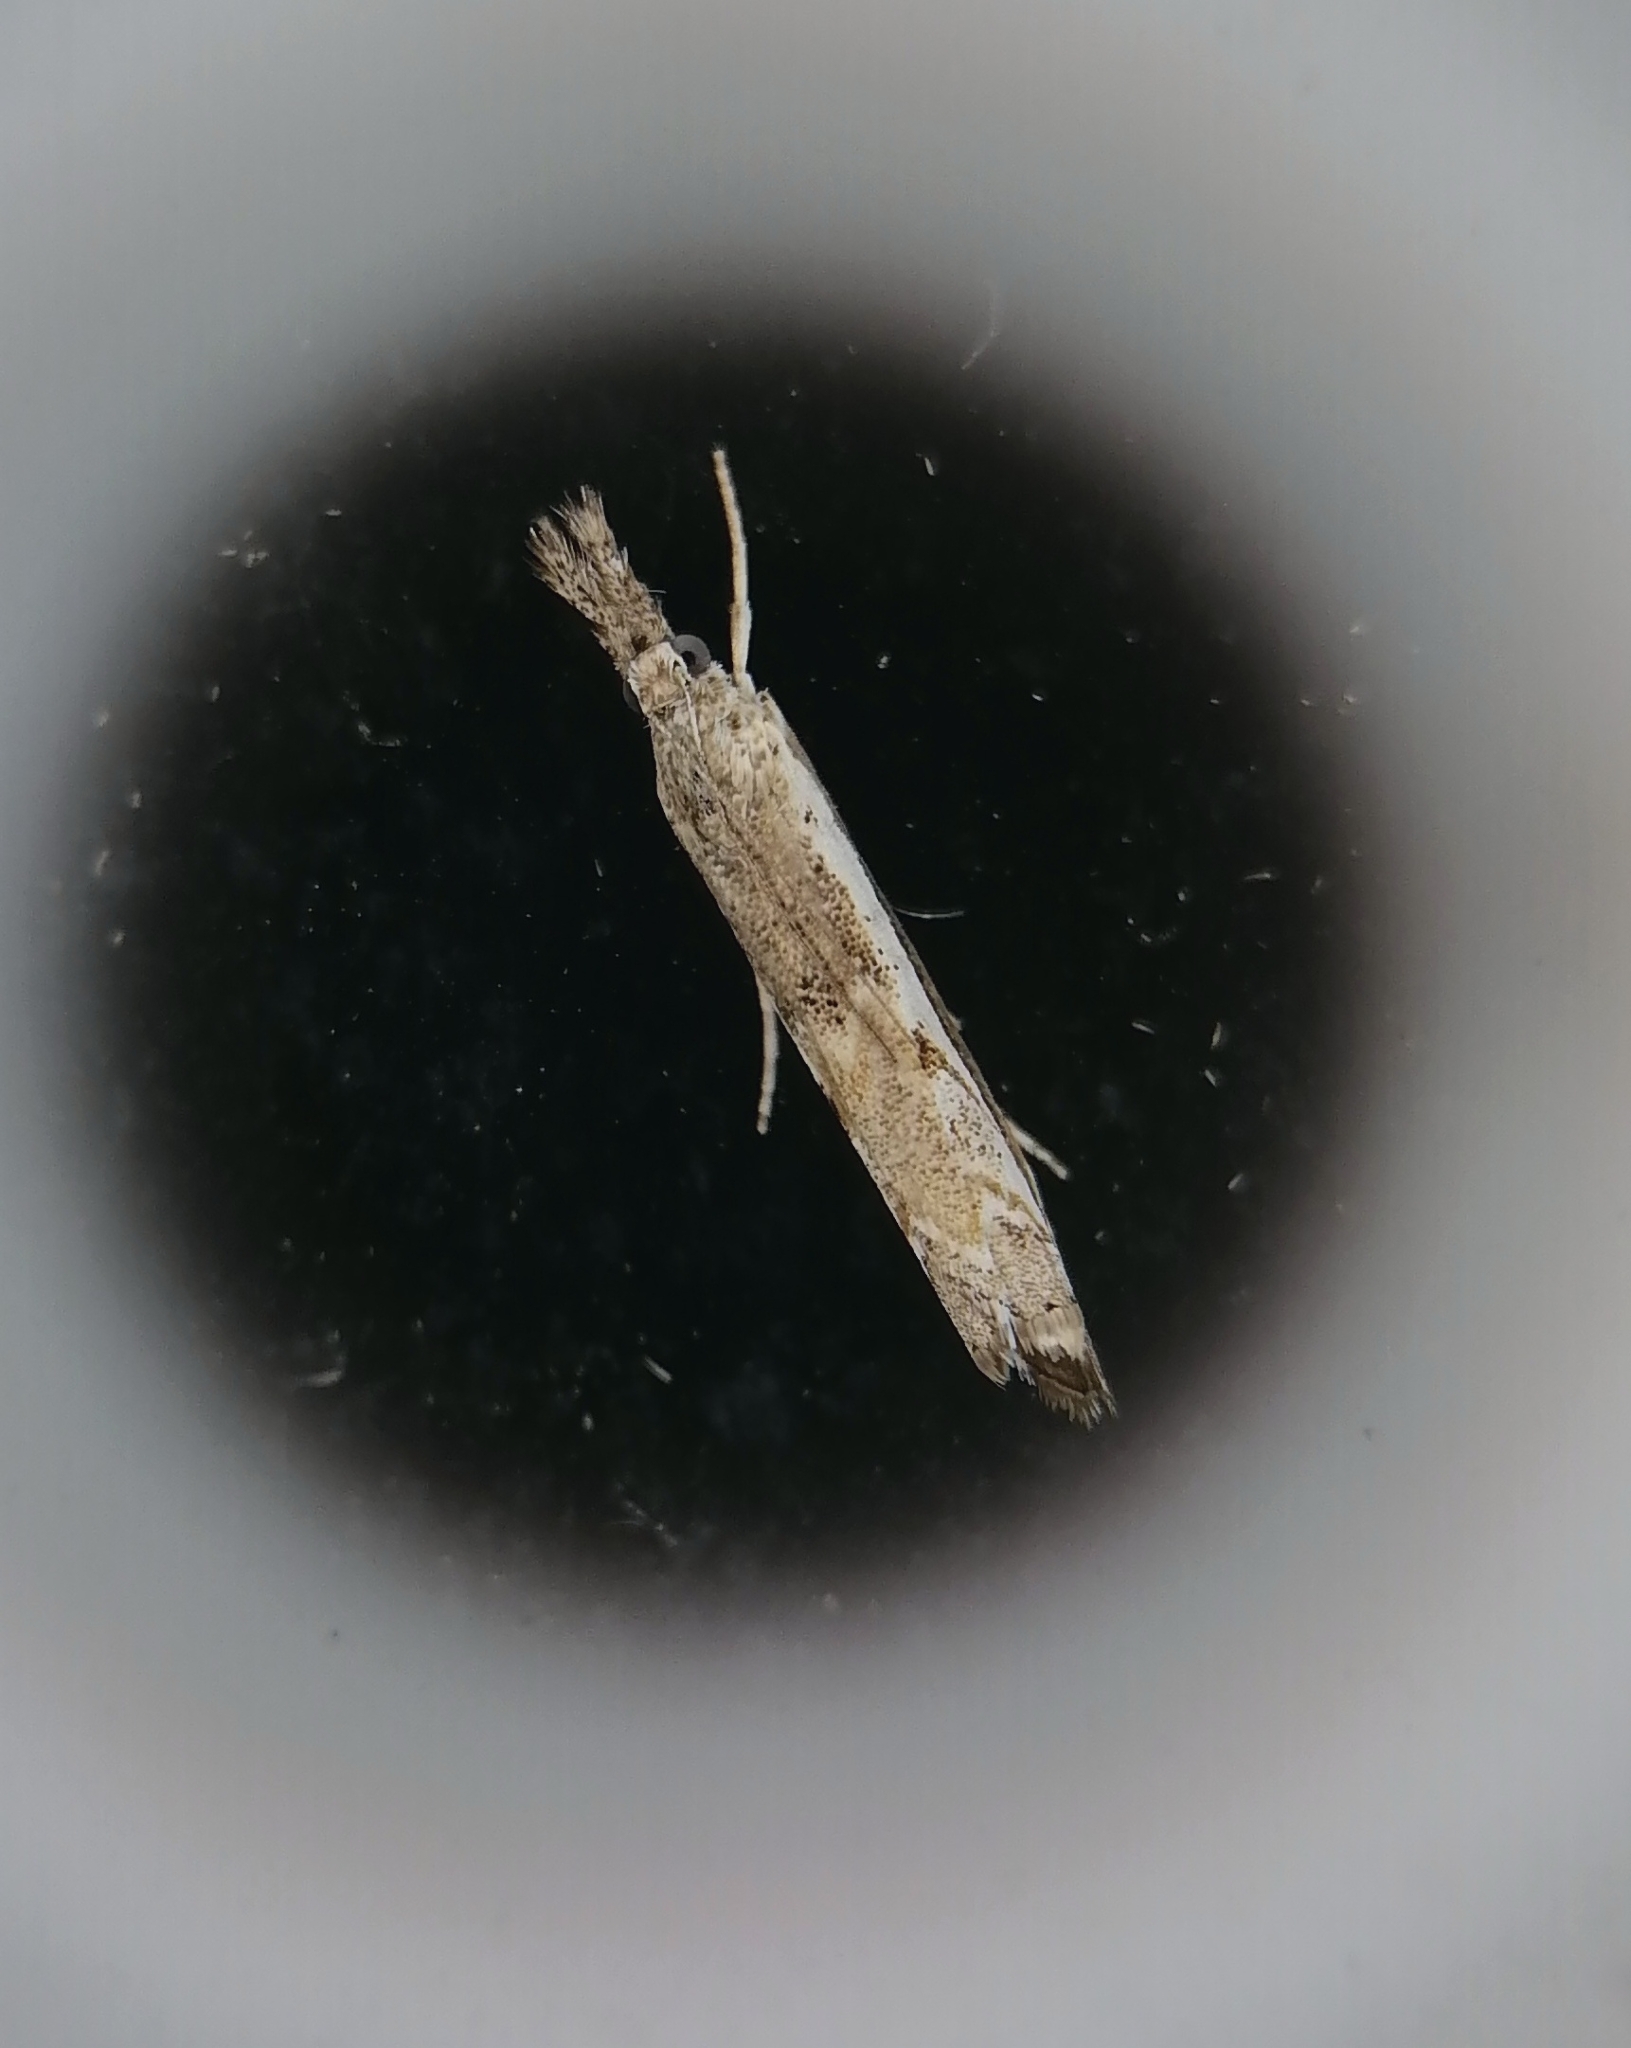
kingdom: Animalia
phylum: Arthropoda
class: Insecta
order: Lepidoptera
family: Crambidae
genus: Platytes
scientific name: Platytes alpinella
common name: Hook-tipped grass-veneer
